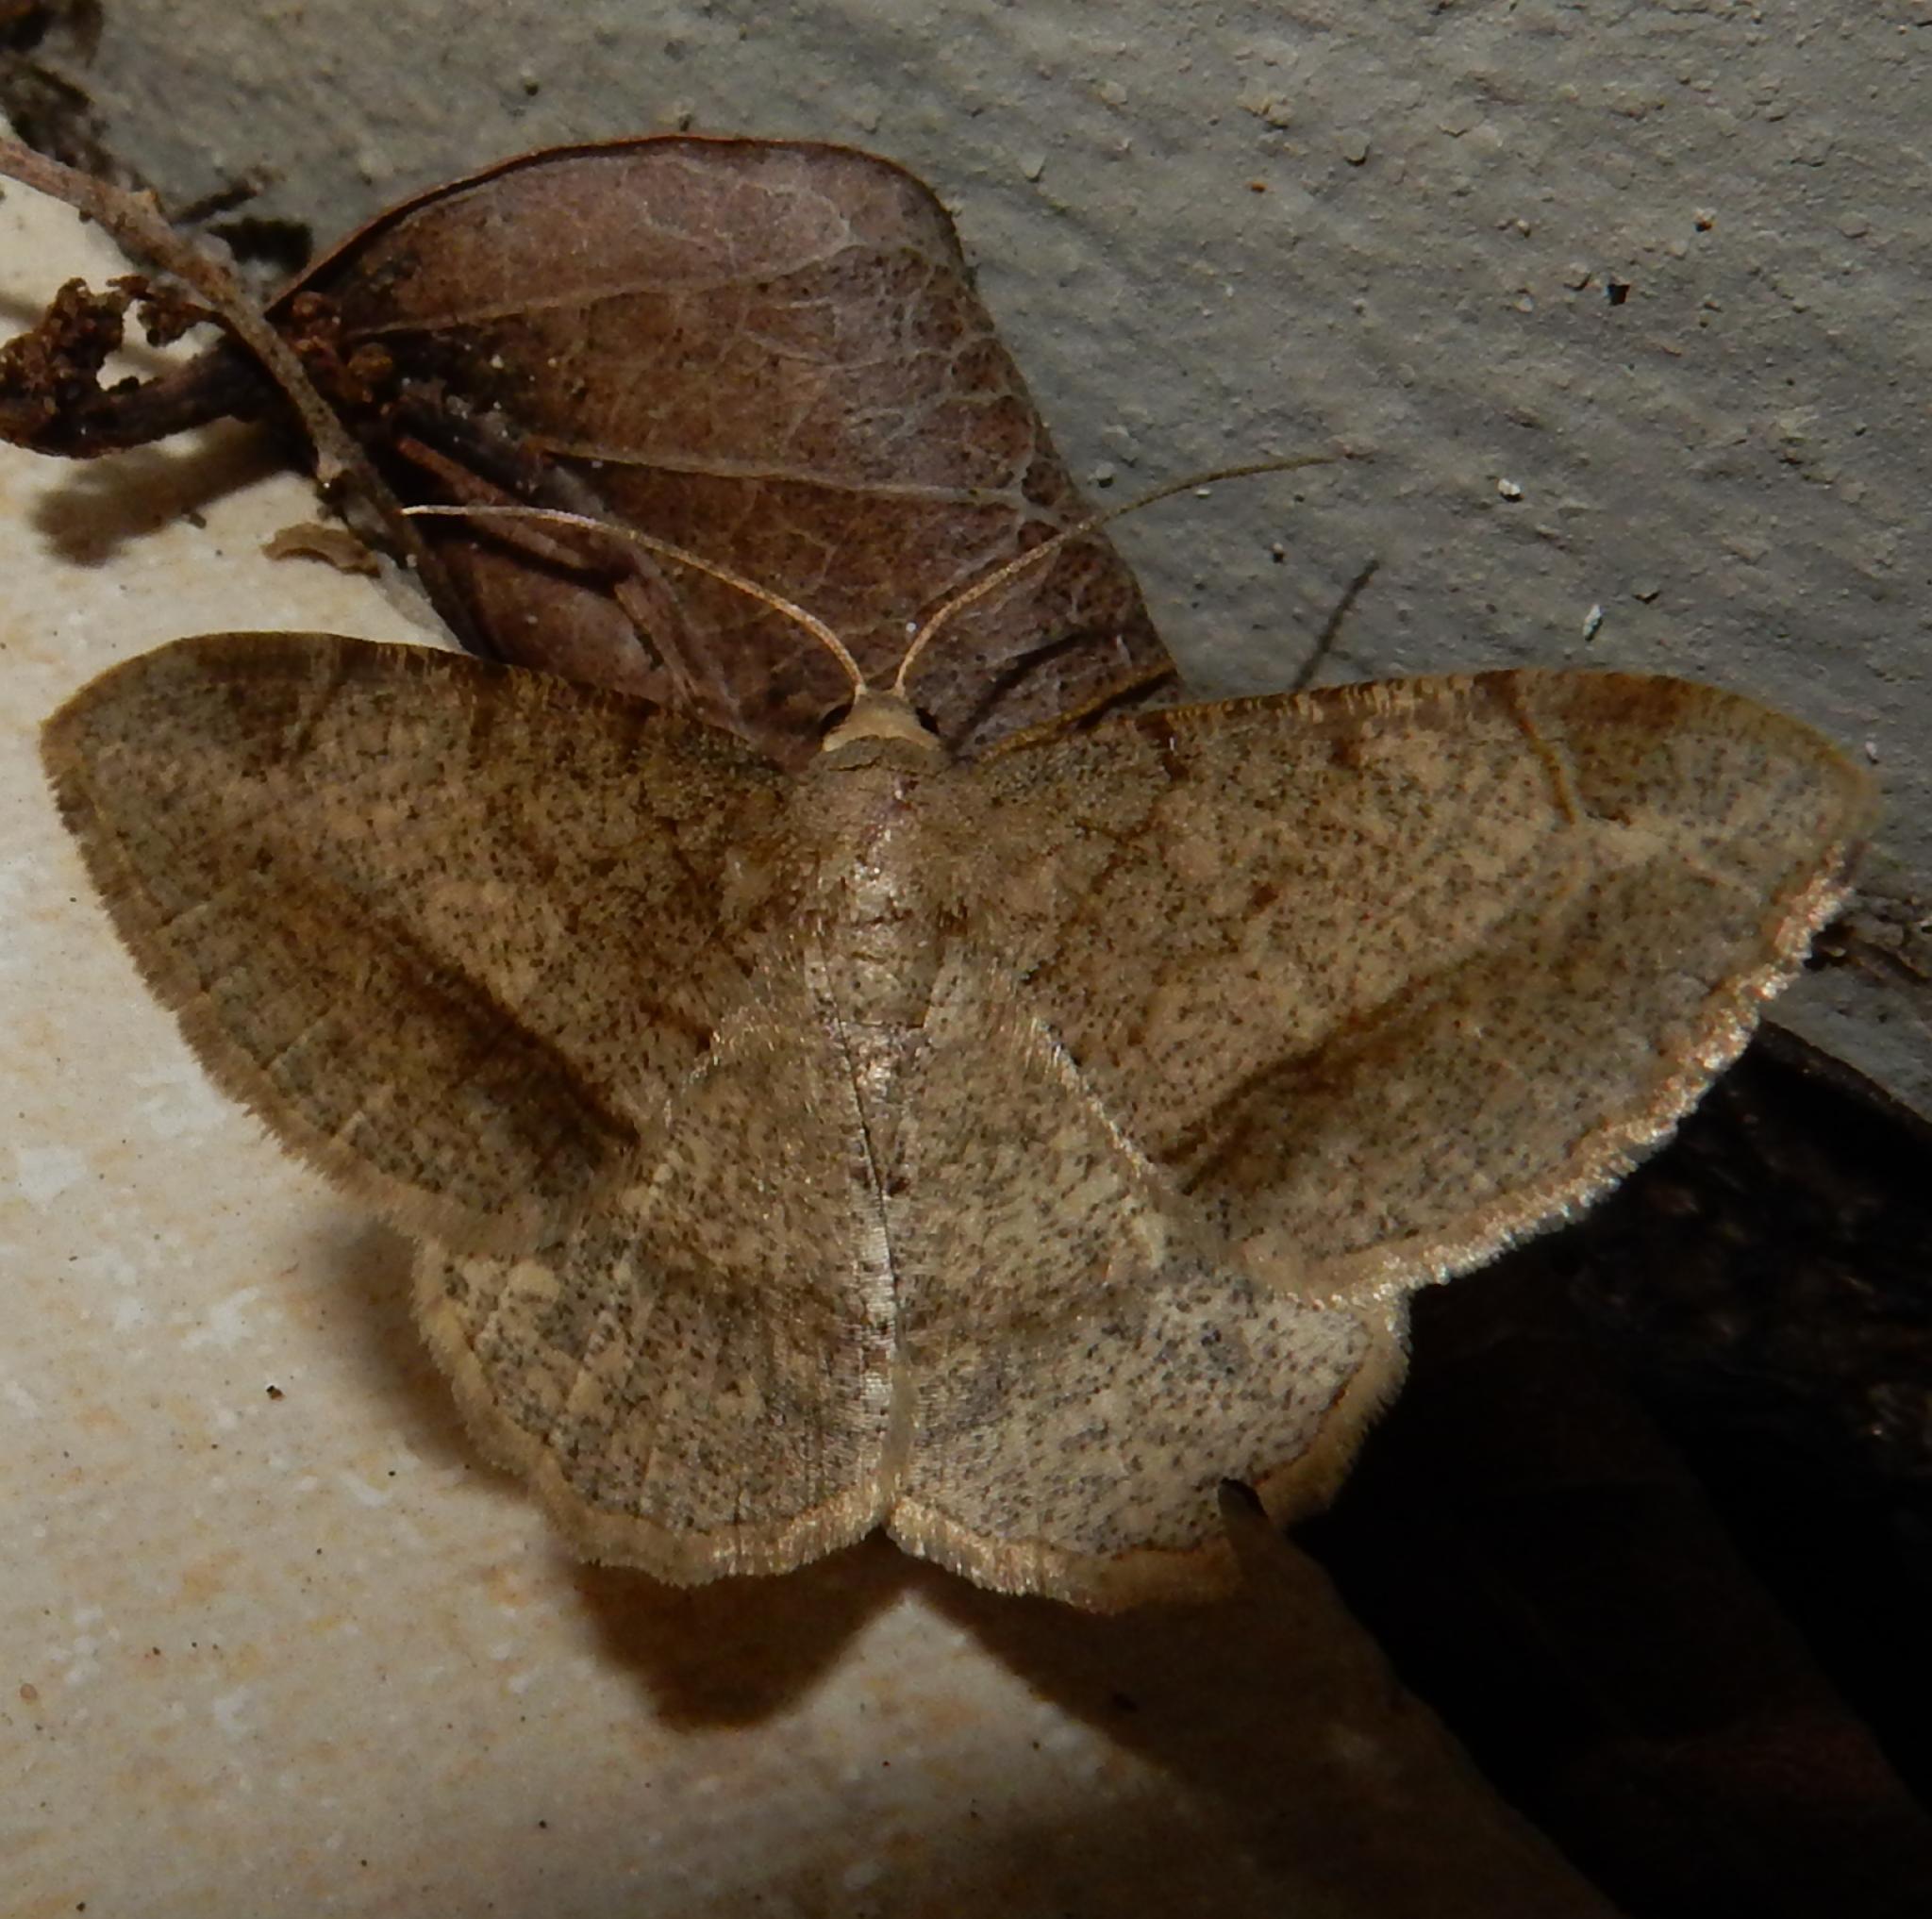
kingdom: Animalia
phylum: Arthropoda
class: Insecta
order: Lepidoptera
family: Geometridae
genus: Chiasmia
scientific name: Chiasmia brongusaria
